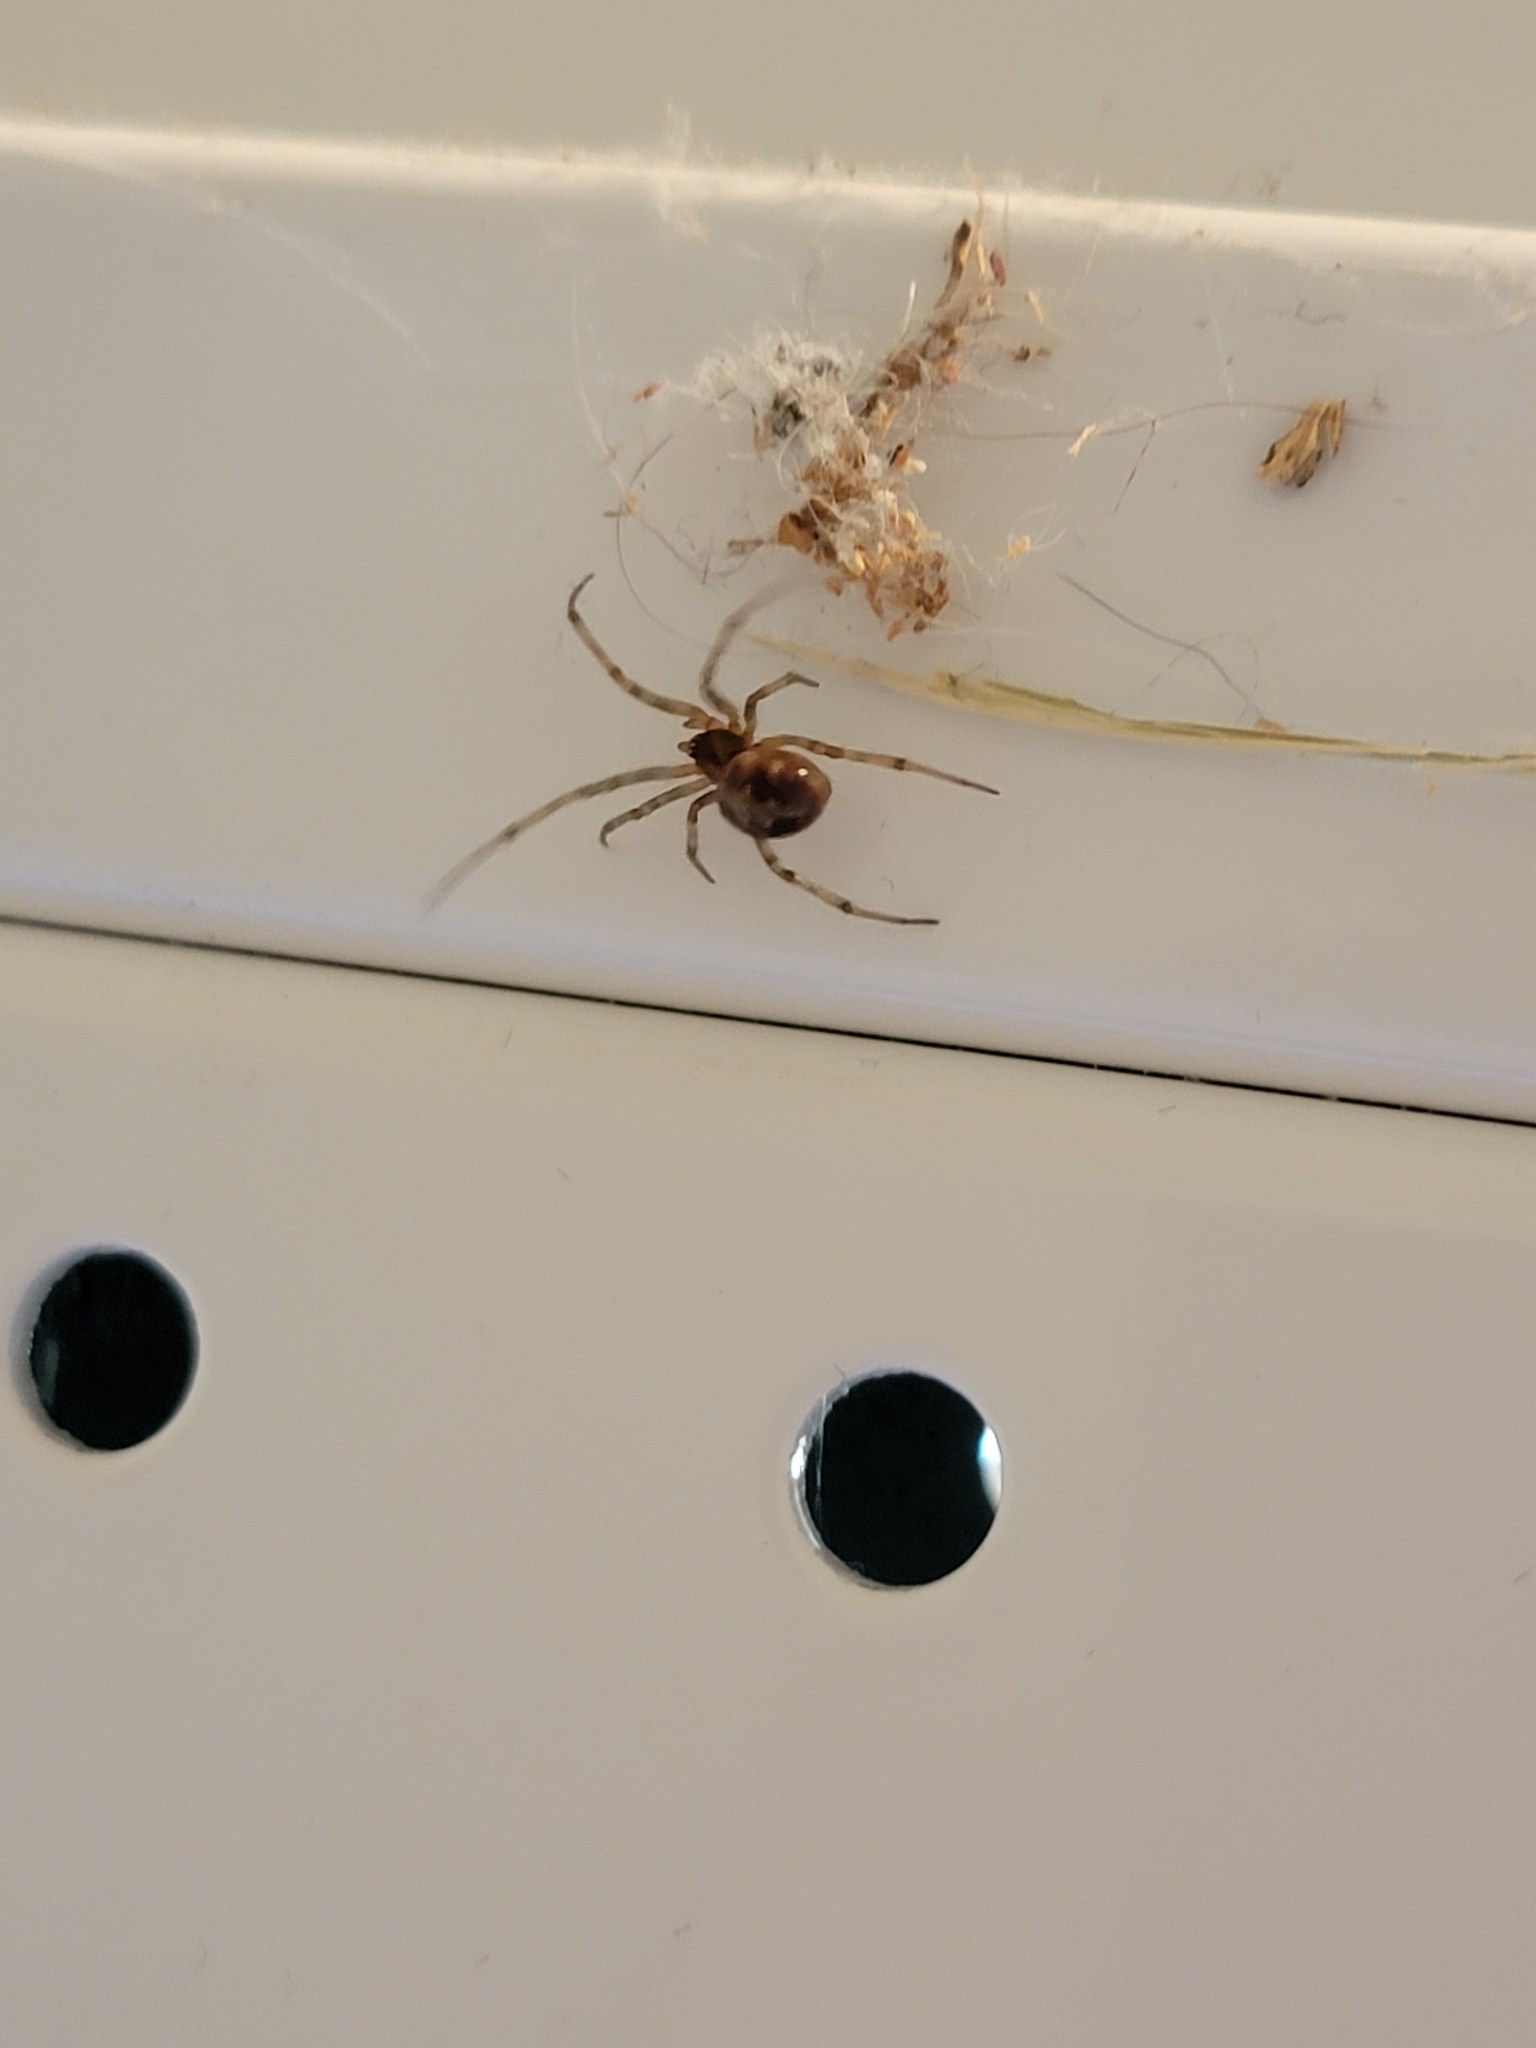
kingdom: Animalia
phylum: Arthropoda
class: Arachnida
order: Araneae
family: Theridiidae
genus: Steatoda
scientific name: Steatoda triangulosa
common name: Triangulate bud spider
